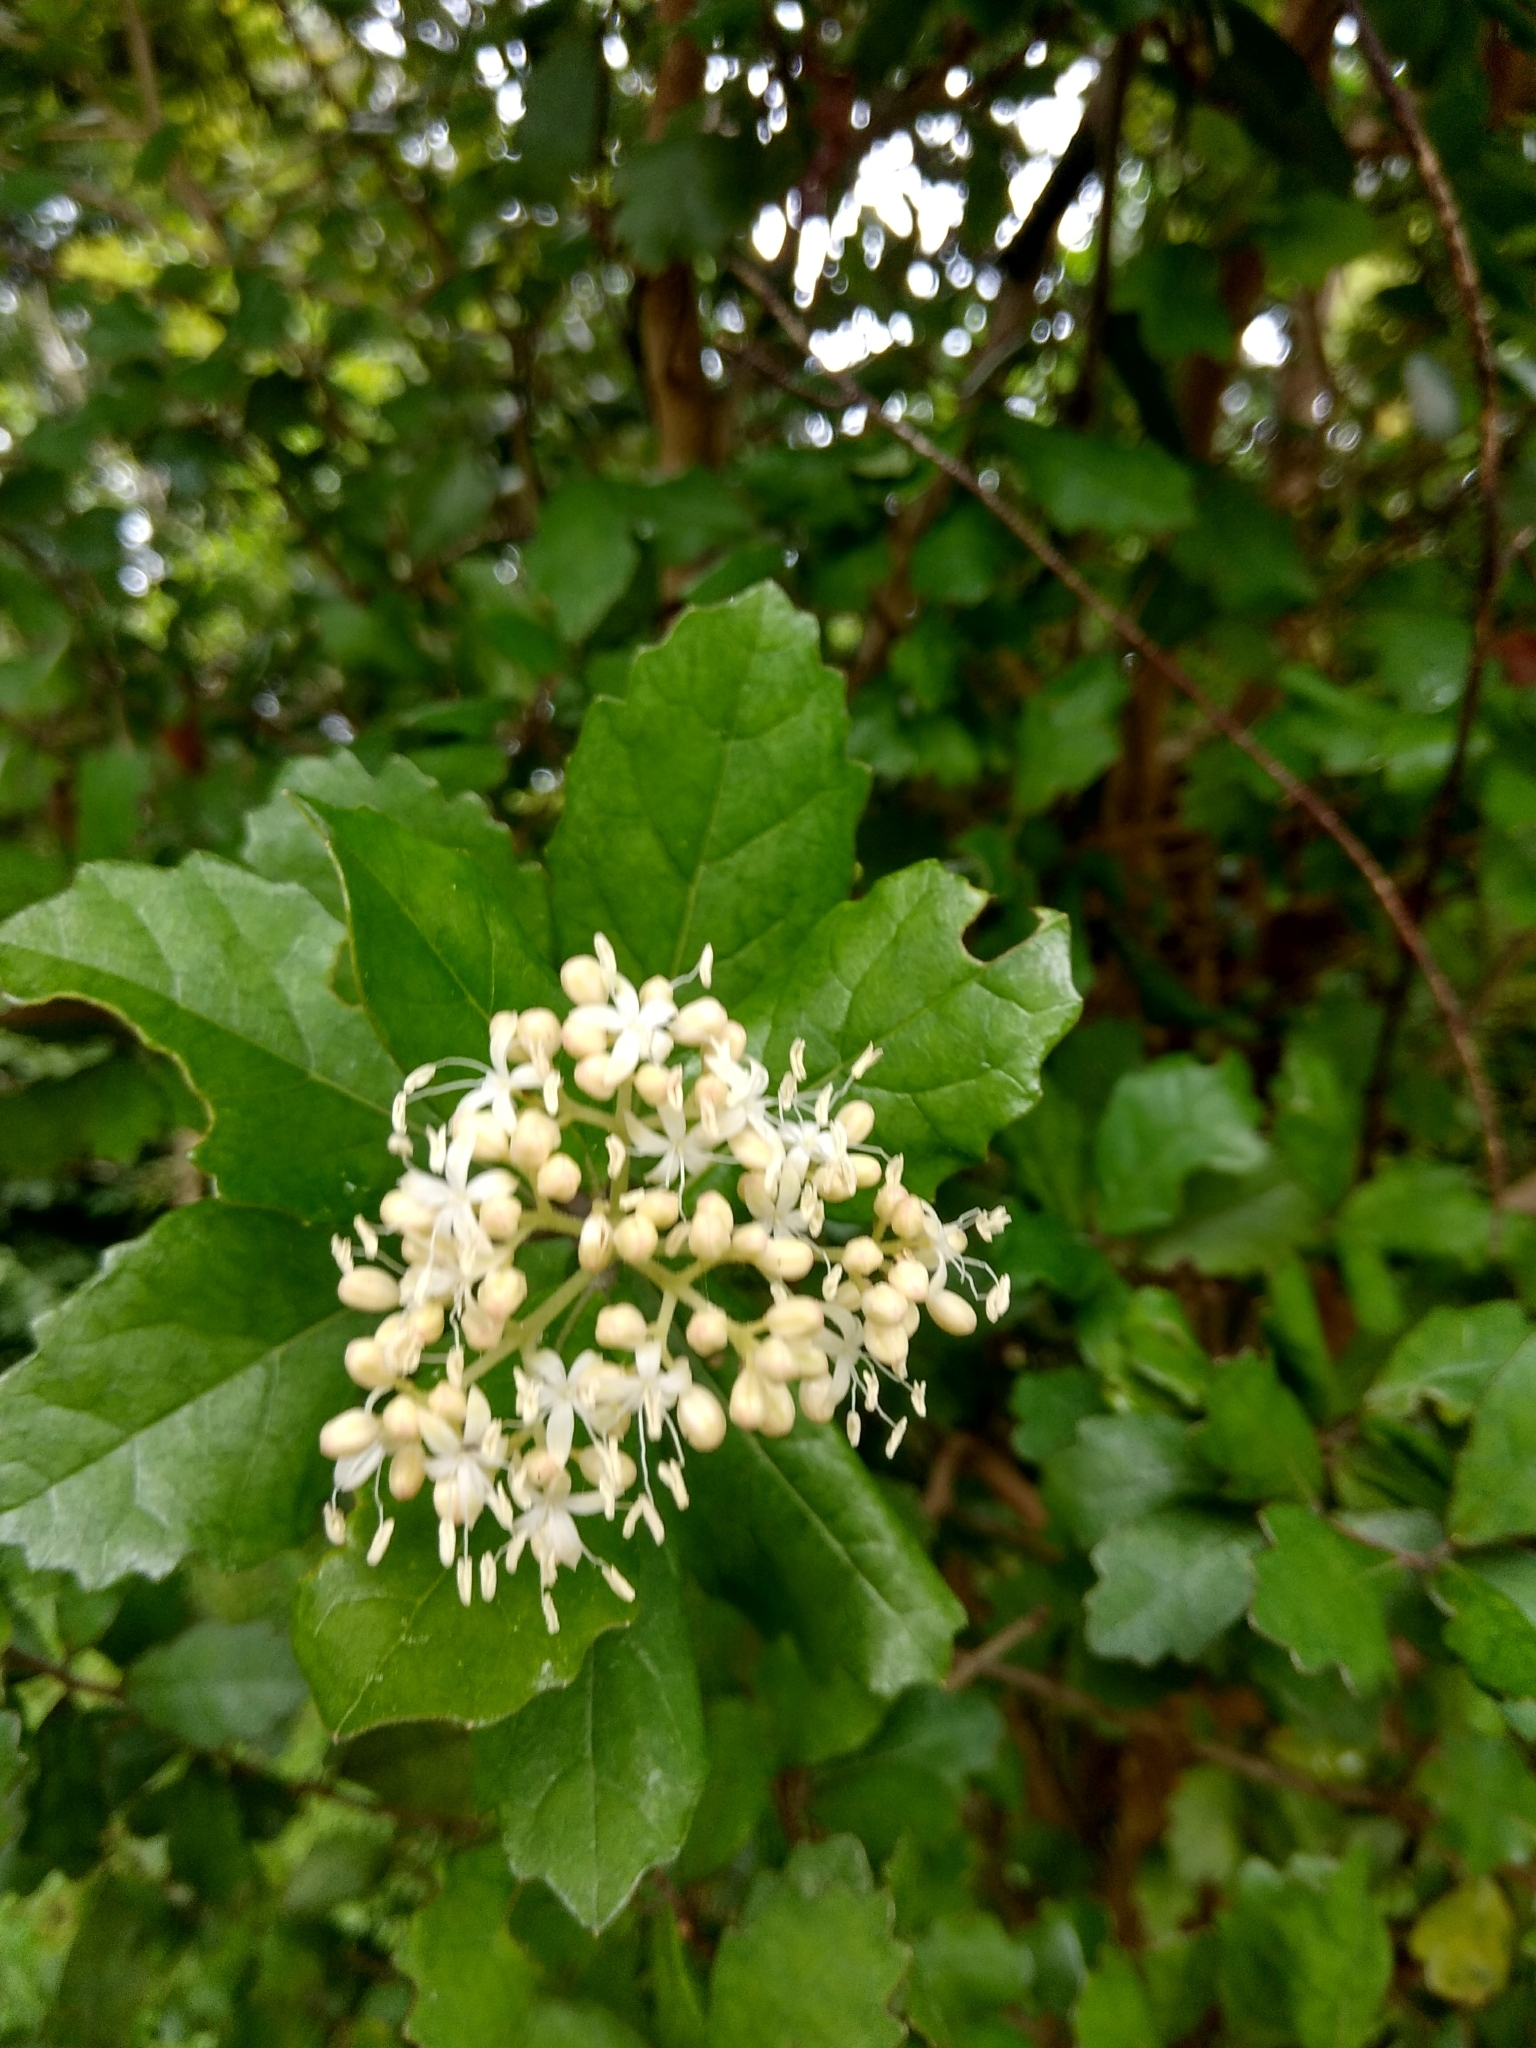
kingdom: Plantae
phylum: Tracheophyta
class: Magnoliopsida
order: Apiales
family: Pennantiaceae
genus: Pennantia
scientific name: Pennantia corymbosa
